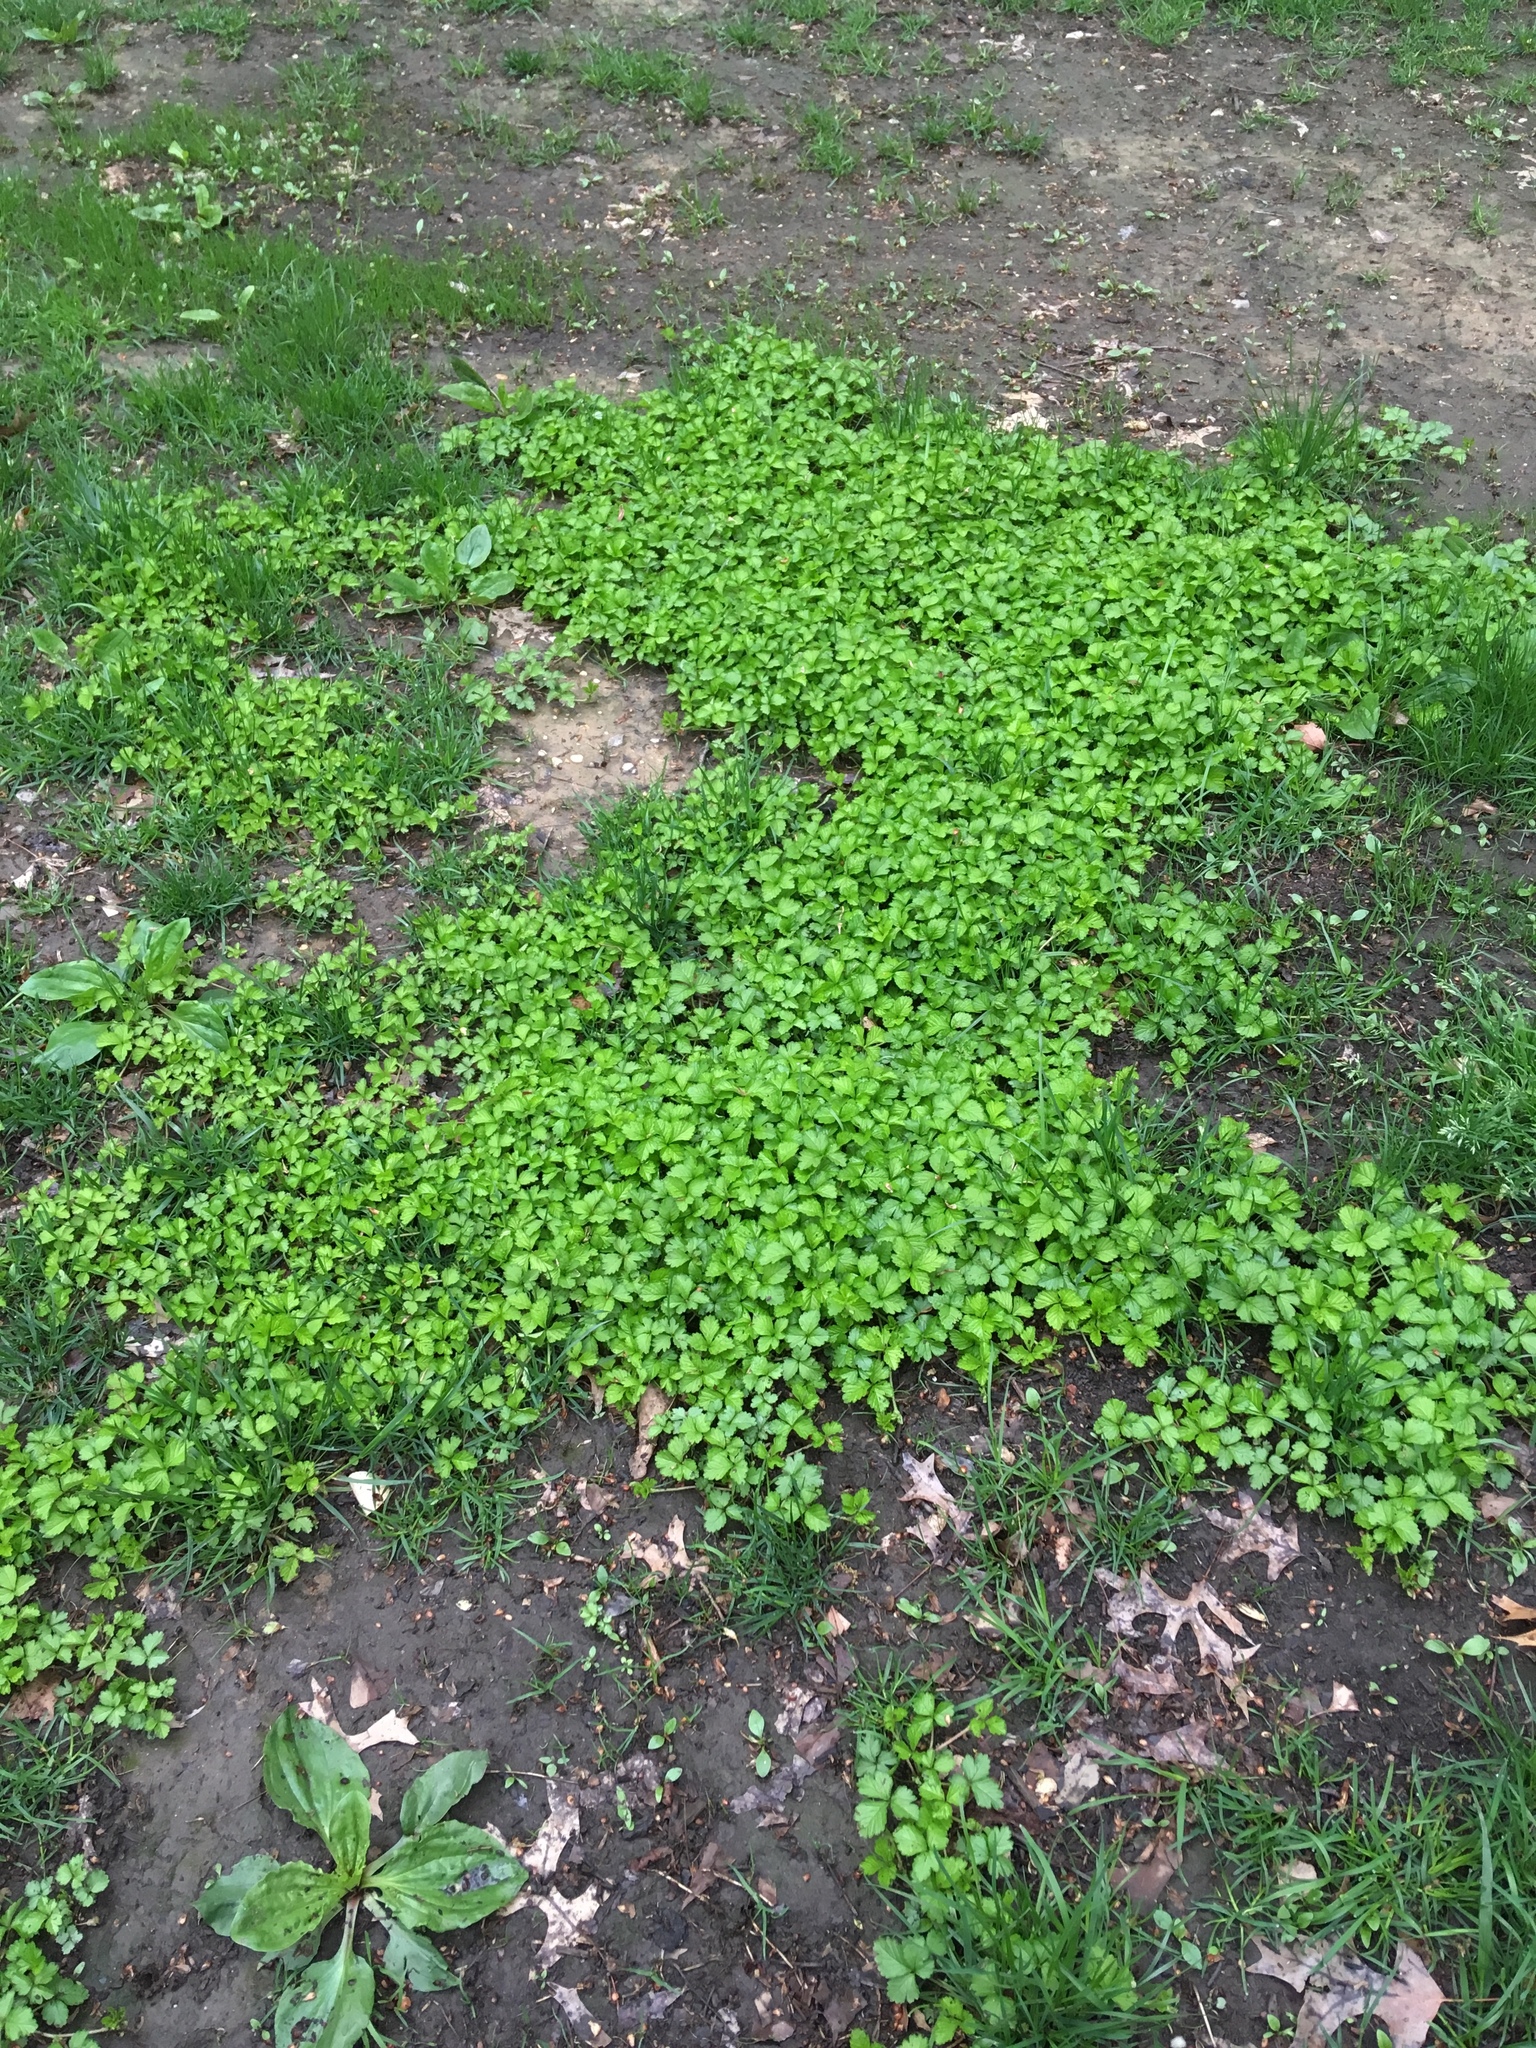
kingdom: Plantae
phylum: Tracheophyta
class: Magnoliopsida
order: Rosales
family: Rosaceae
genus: Potentilla
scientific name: Potentilla indica
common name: Yellow-flowered strawberry
